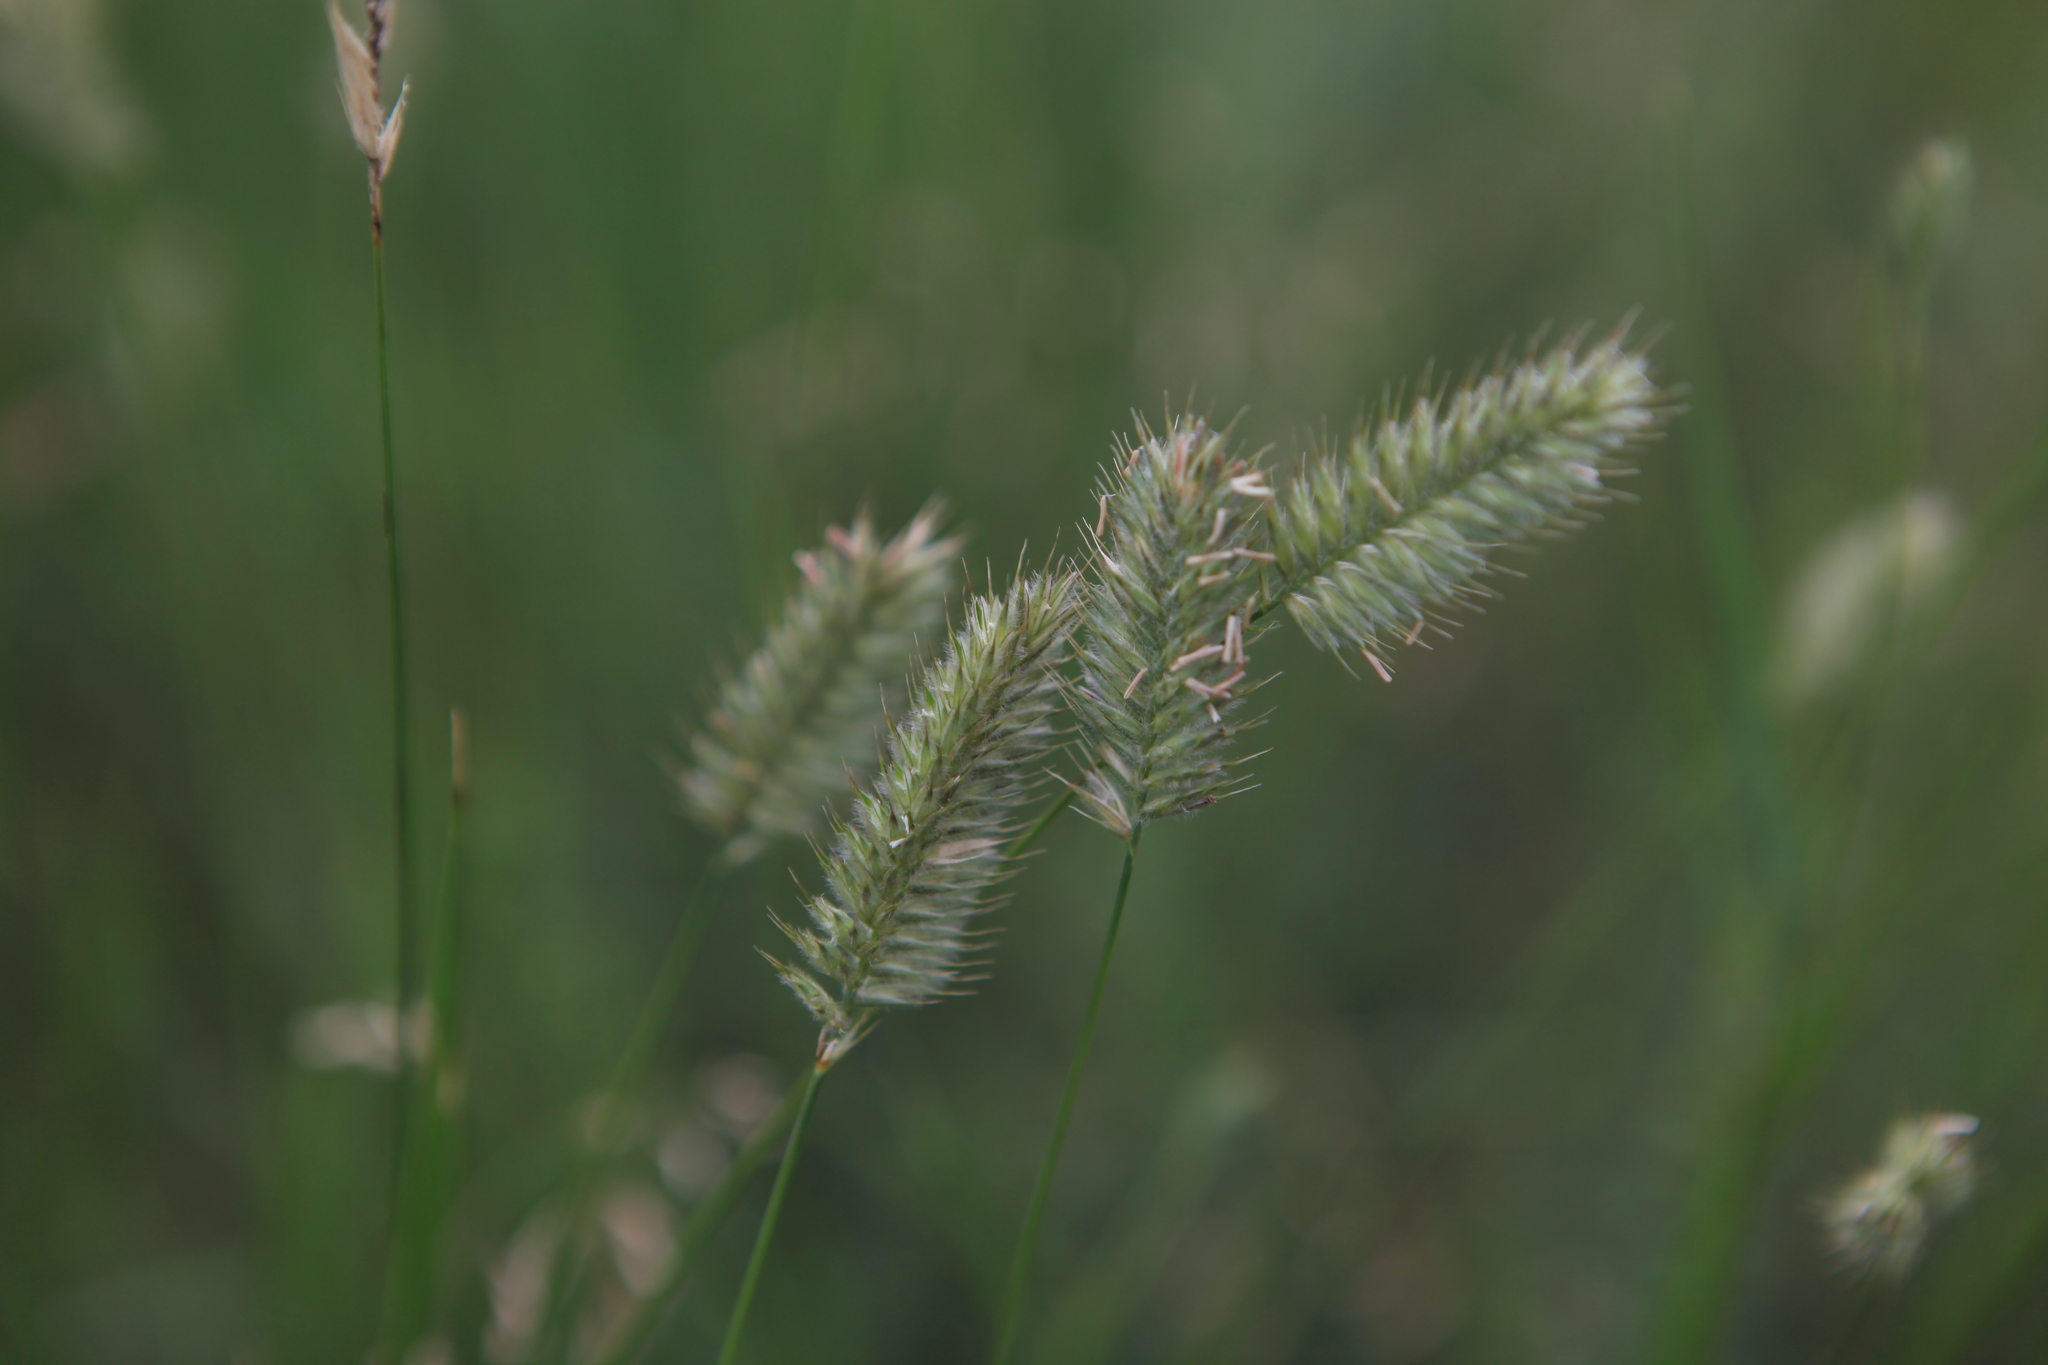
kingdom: Plantae
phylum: Tracheophyta
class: Liliopsida
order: Poales
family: Poaceae
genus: Agropyron
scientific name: Agropyron cristatum
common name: Crested wheatgrass
